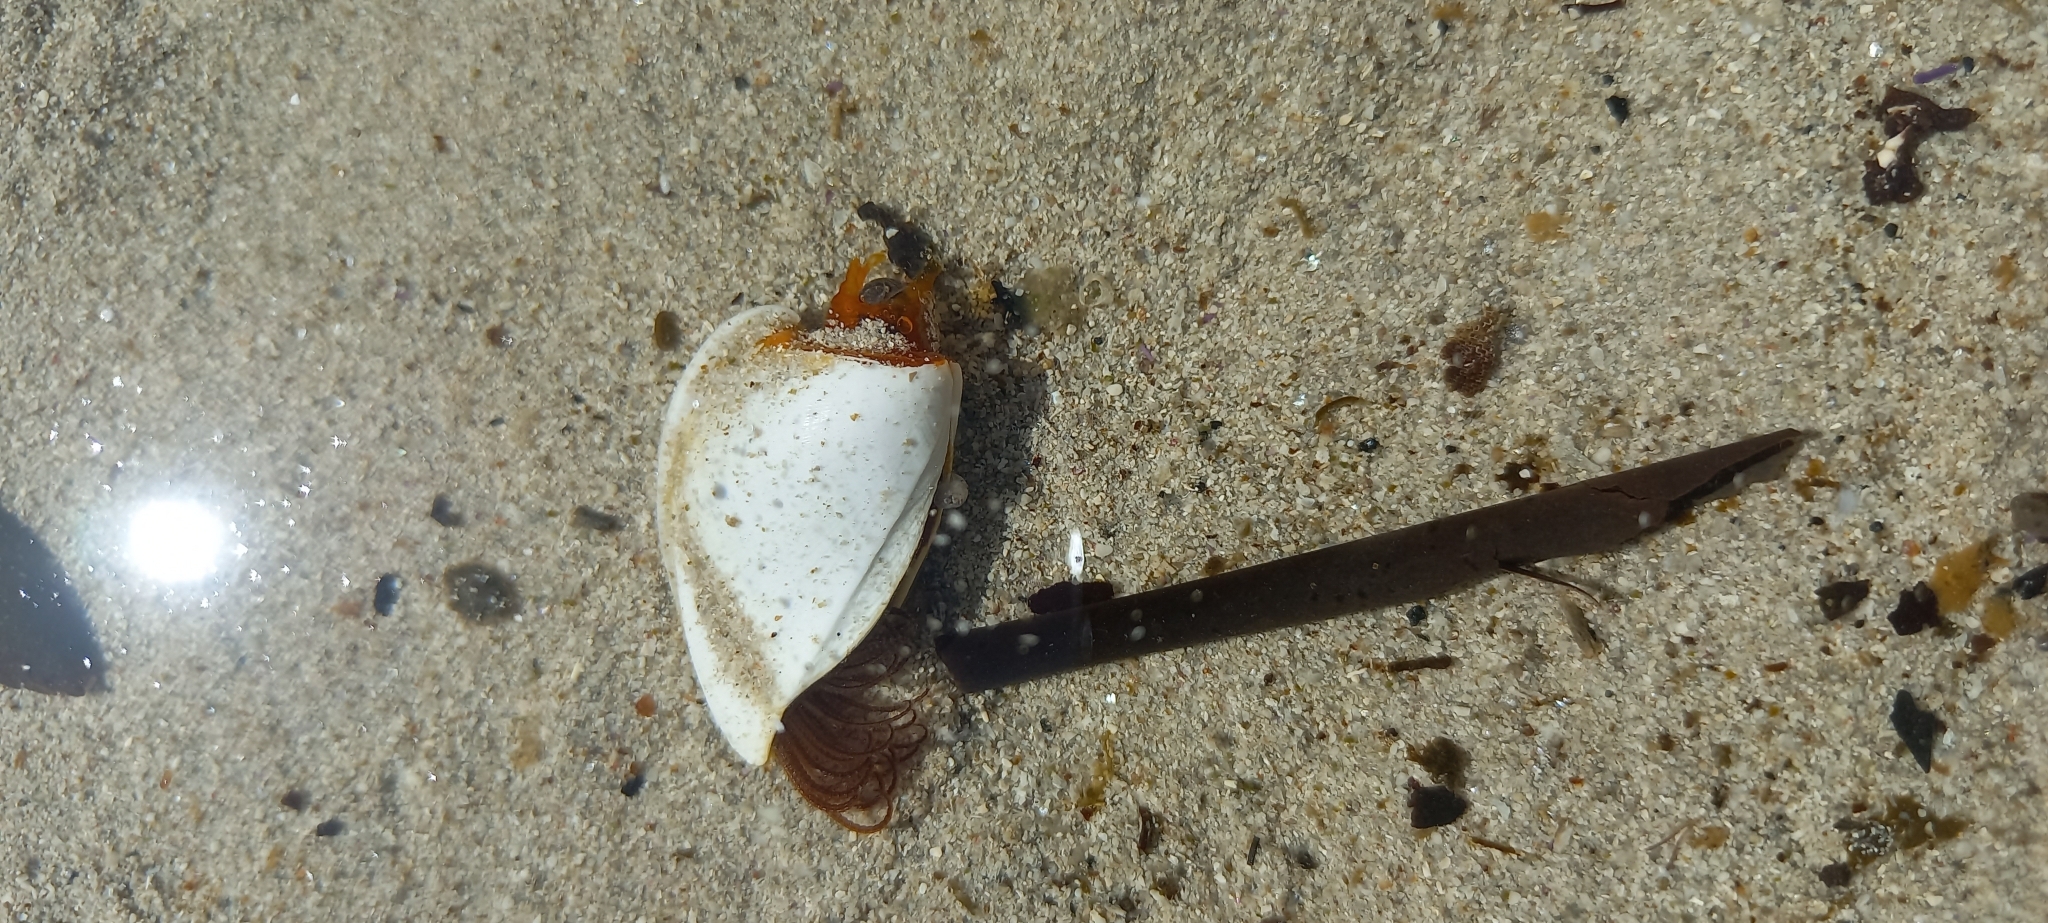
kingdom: Animalia
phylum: Arthropoda
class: Maxillopoda
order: Pedunculata
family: Lepadidae
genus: Lepas
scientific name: Lepas anserifera
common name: Goose barnacle
